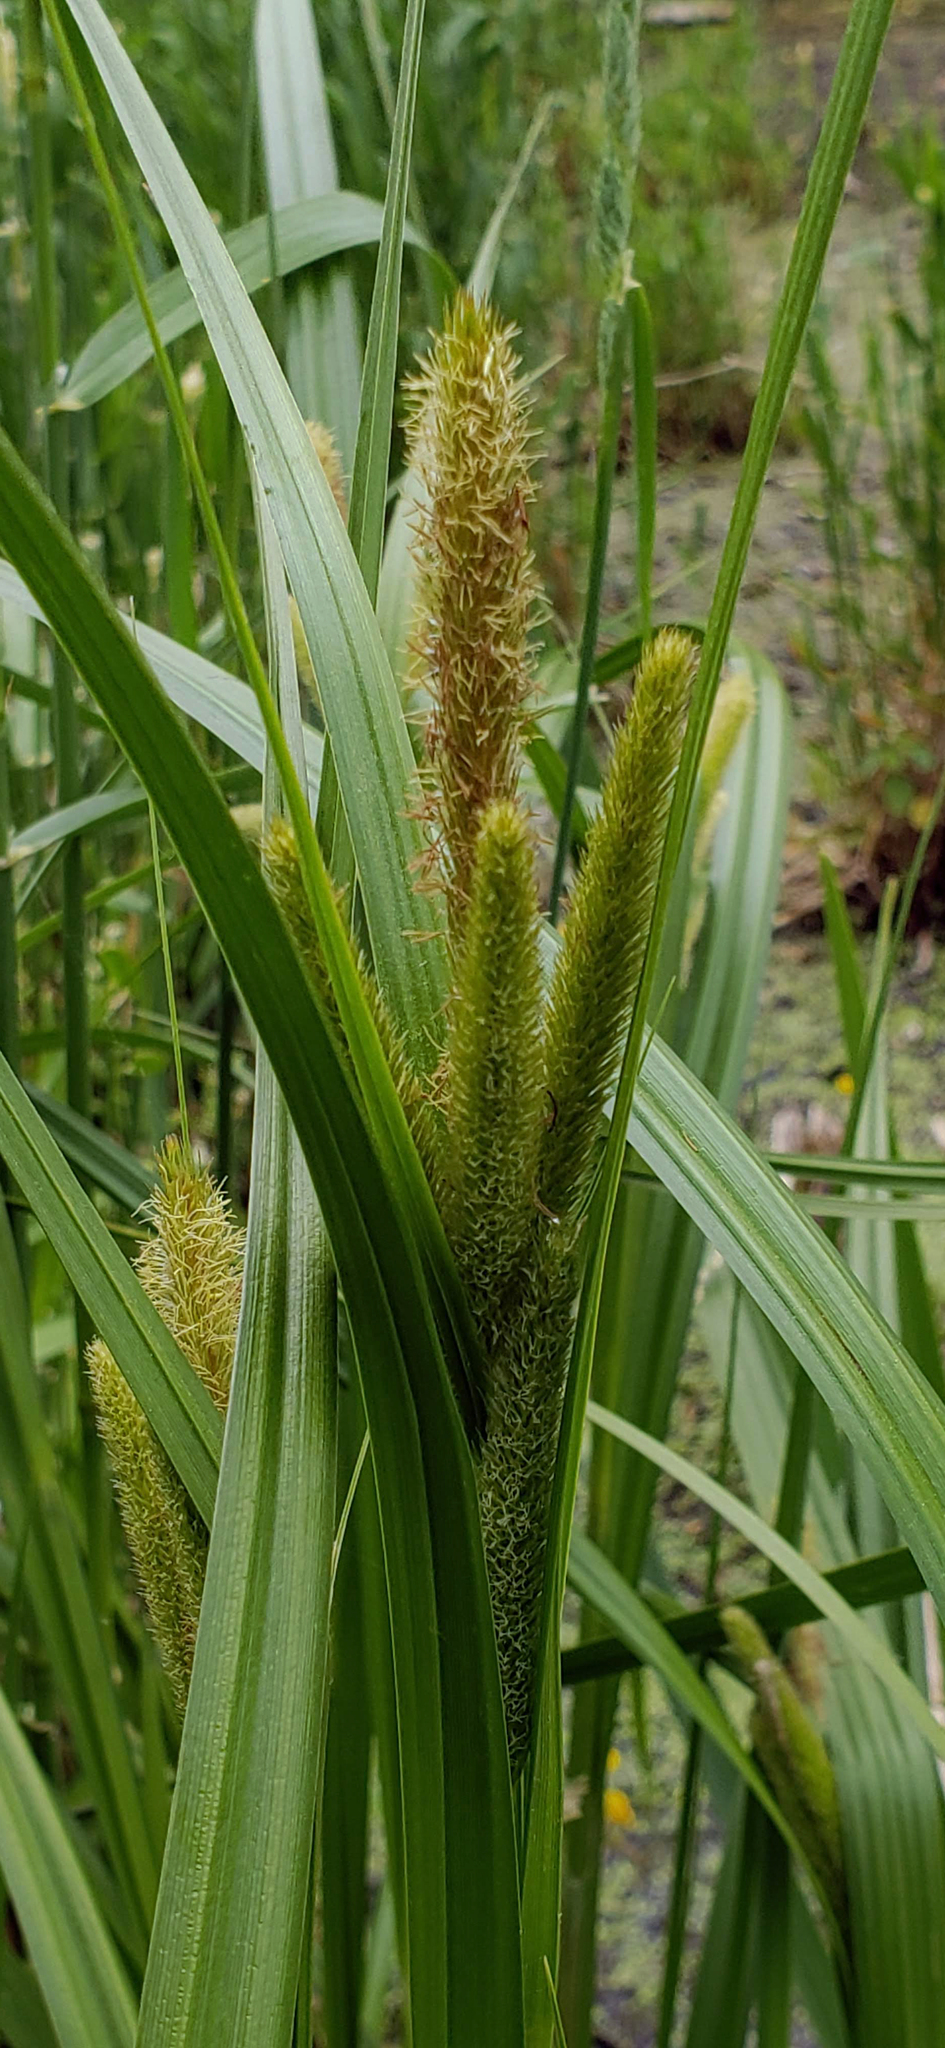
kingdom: Plantae
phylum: Tracheophyta
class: Liliopsida
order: Poales
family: Cyperaceae
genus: Carex
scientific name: Carex comosa
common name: Bristly sedge
